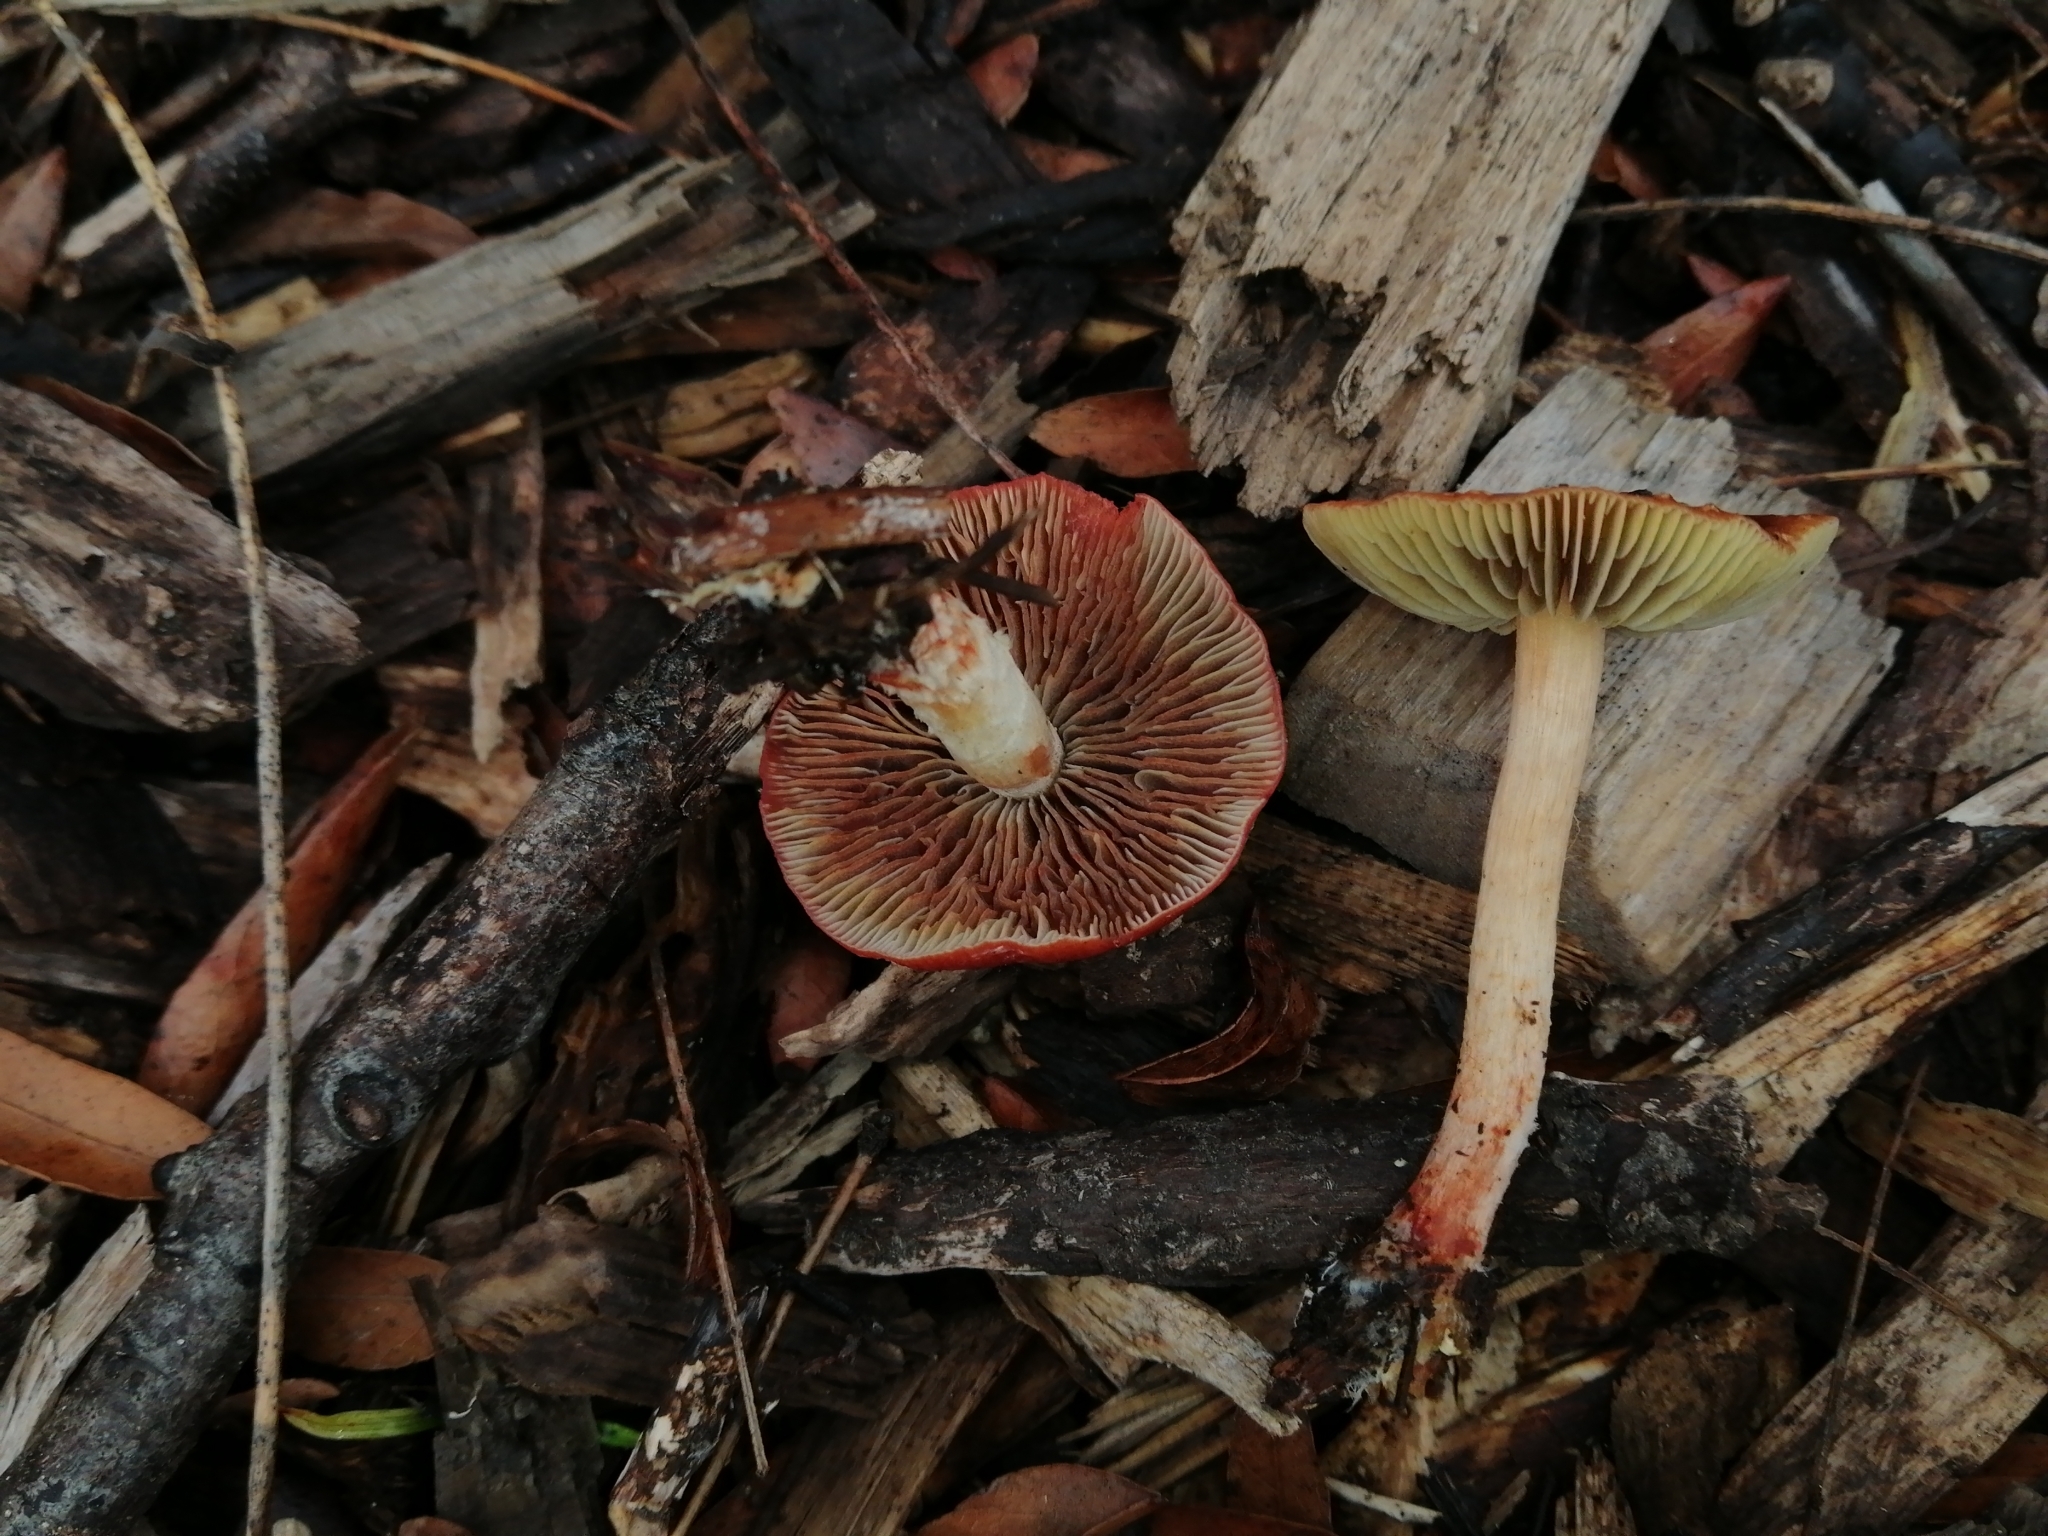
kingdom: Fungi
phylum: Basidiomycota
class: Agaricomycetes
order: Agaricales
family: Strophariaceae
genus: Leratiomyces
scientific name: Leratiomyces ceres
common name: Redlead roundhead
